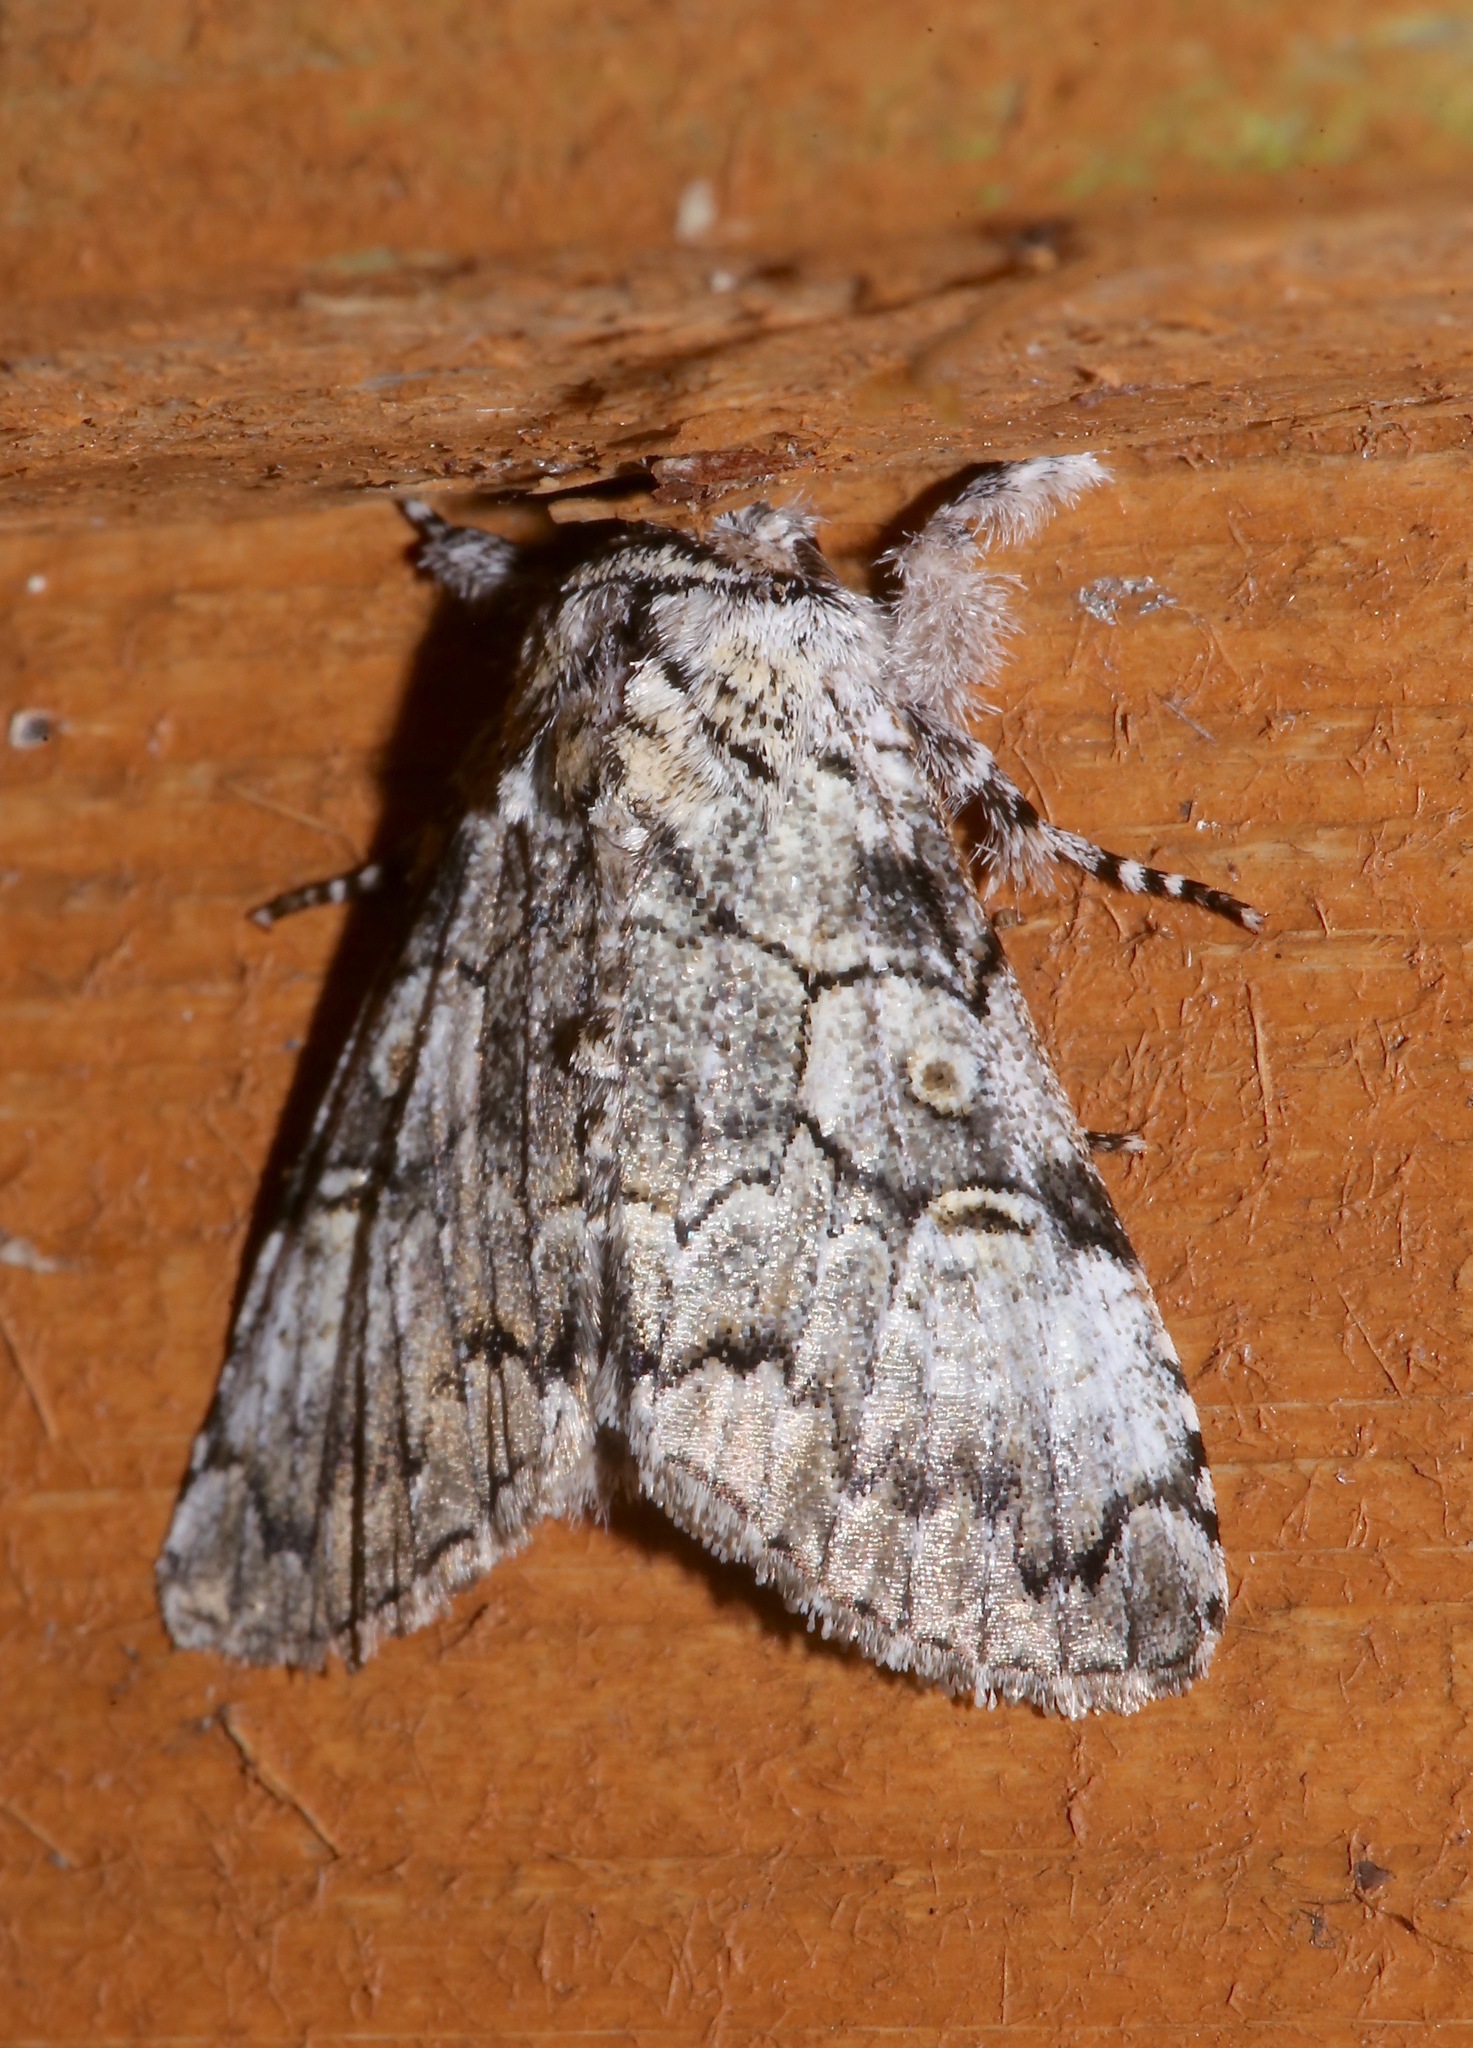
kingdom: Animalia
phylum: Arthropoda
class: Insecta
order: Lepidoptera
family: Noctuidae
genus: Charadra
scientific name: Charadra deridens
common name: Marbled tuffet
